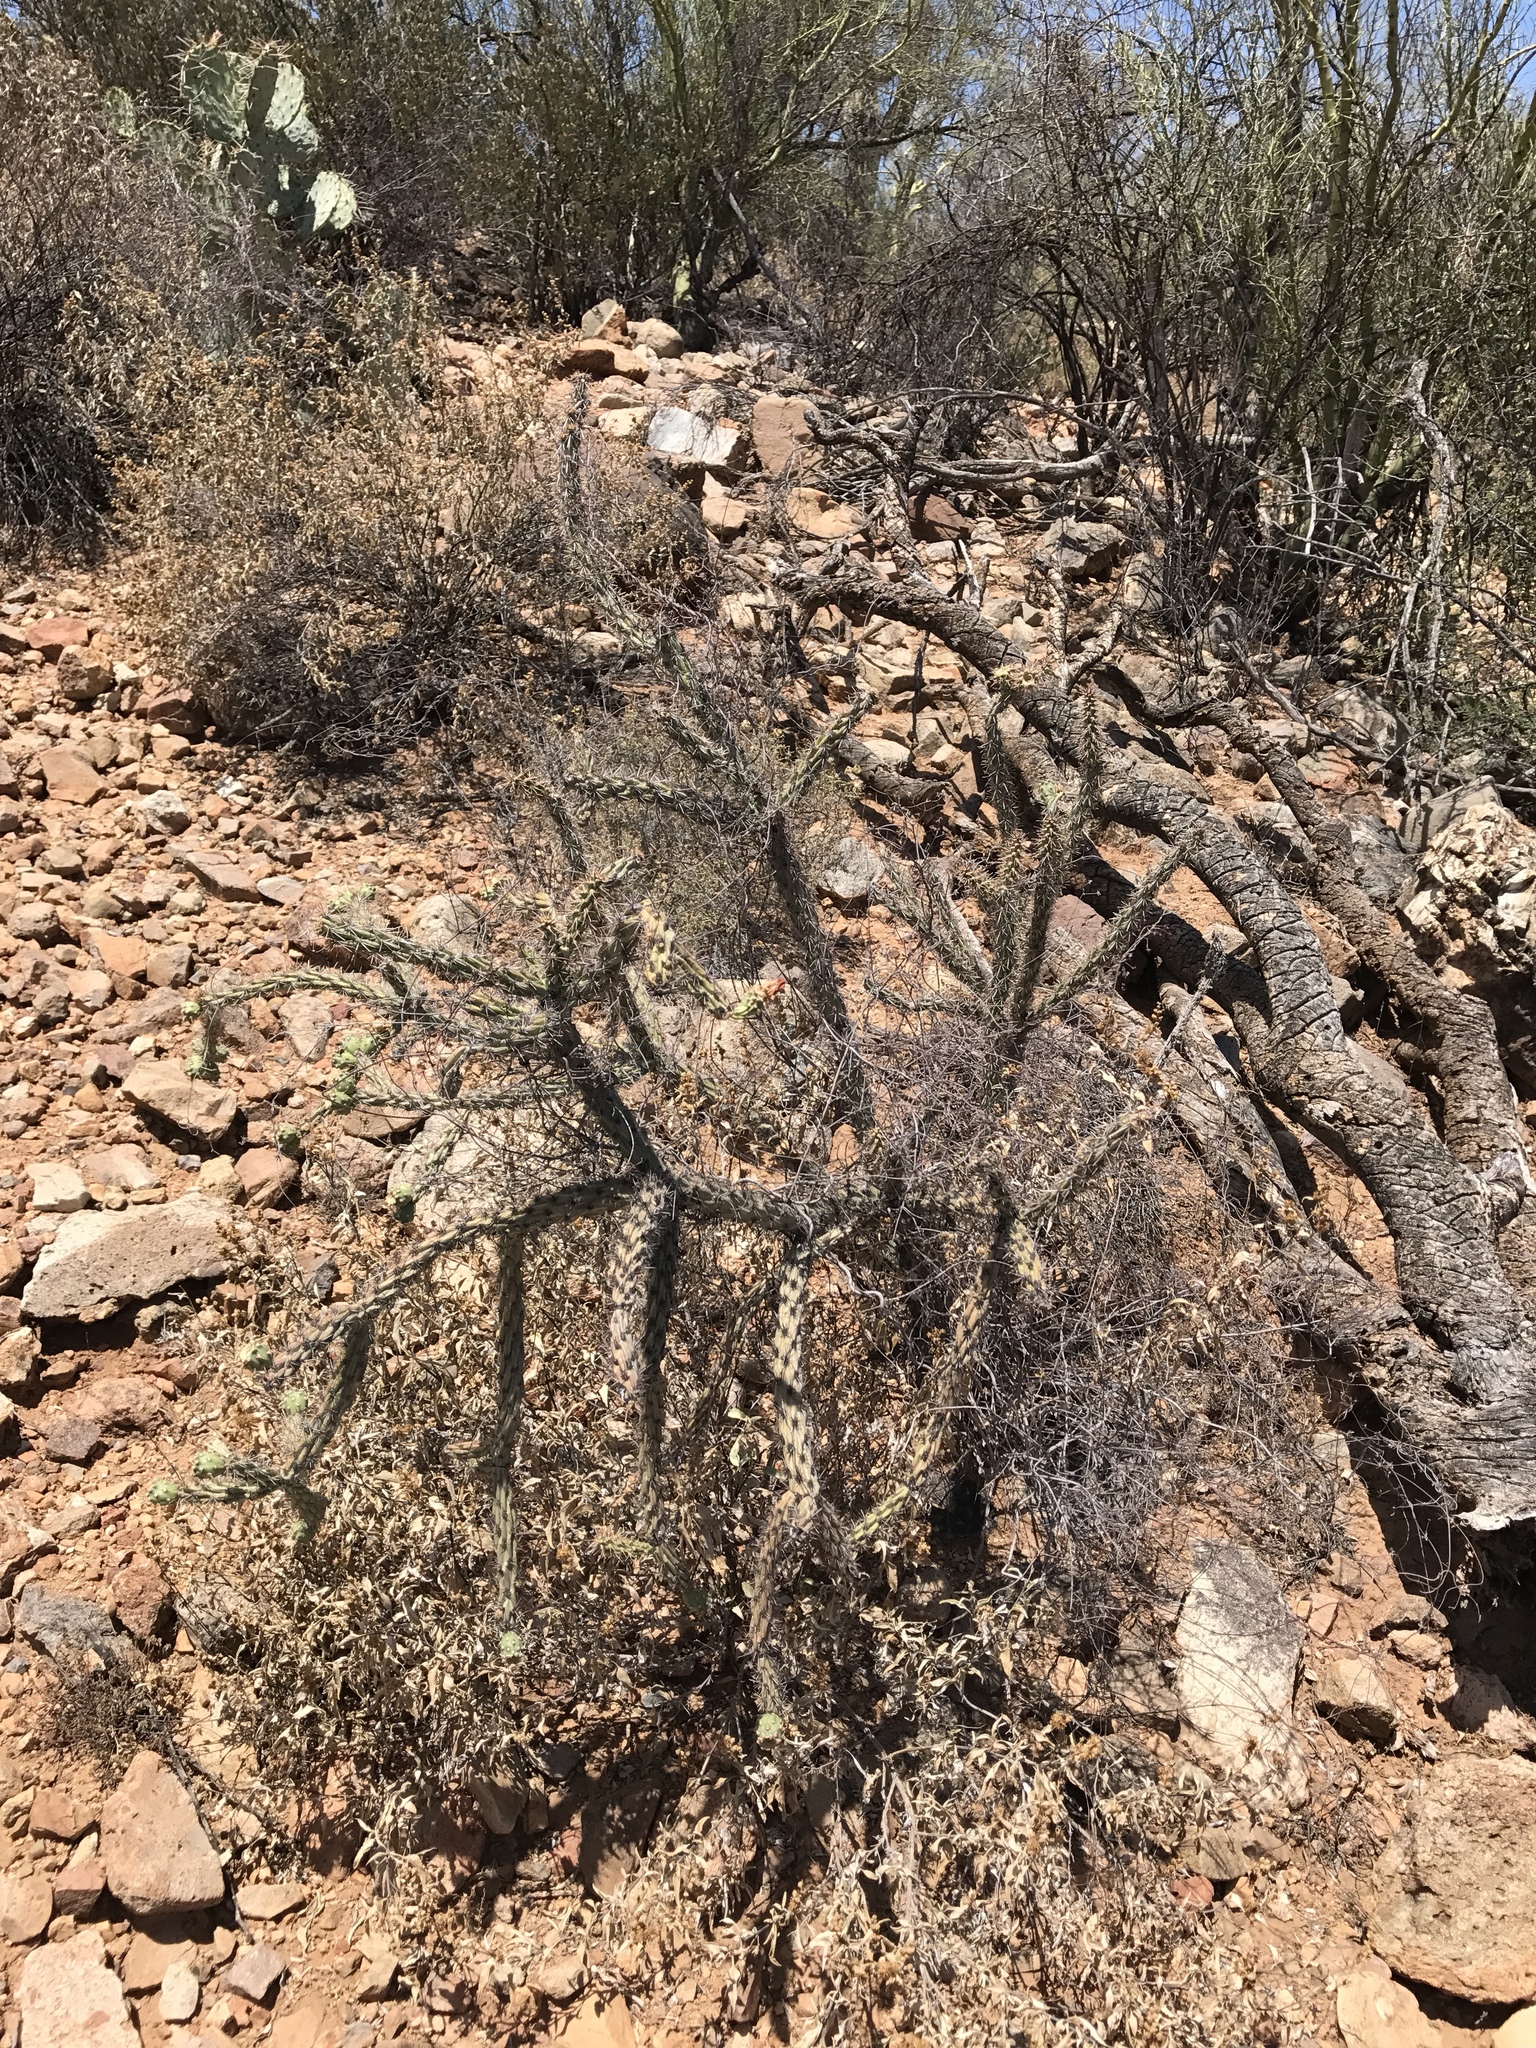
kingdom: Plantae
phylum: Tracheophyta
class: Magnoliopsida
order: Caryophyllales
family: Cactaceae
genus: Cylindropuntia
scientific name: Cylindropuntia thurberi
